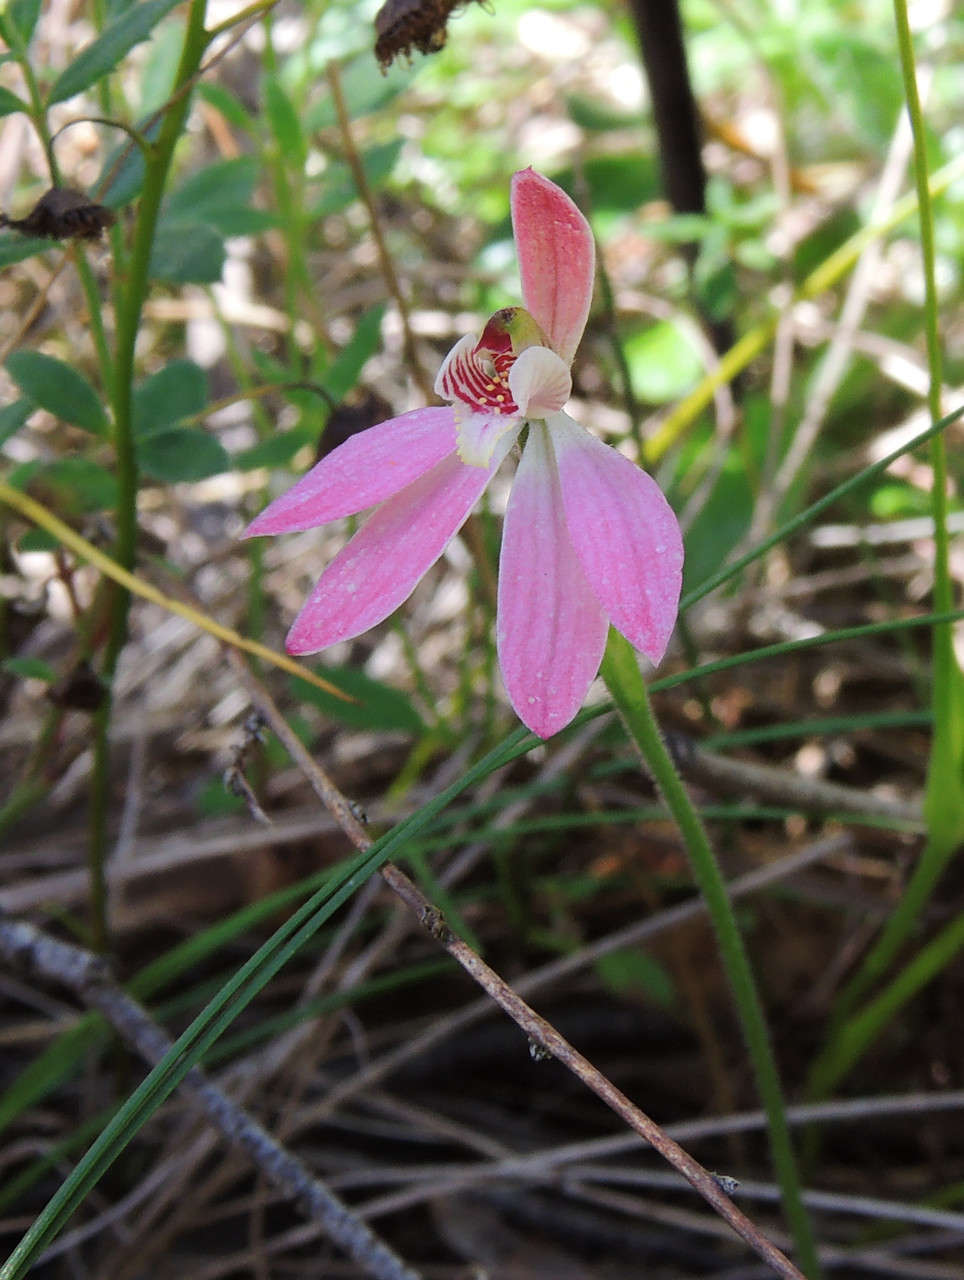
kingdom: Plantae
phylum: Tracheophyta
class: Liliopsida
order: Asparagales
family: Orchidaceae
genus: Caladenia
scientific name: Caladenia fuscata
